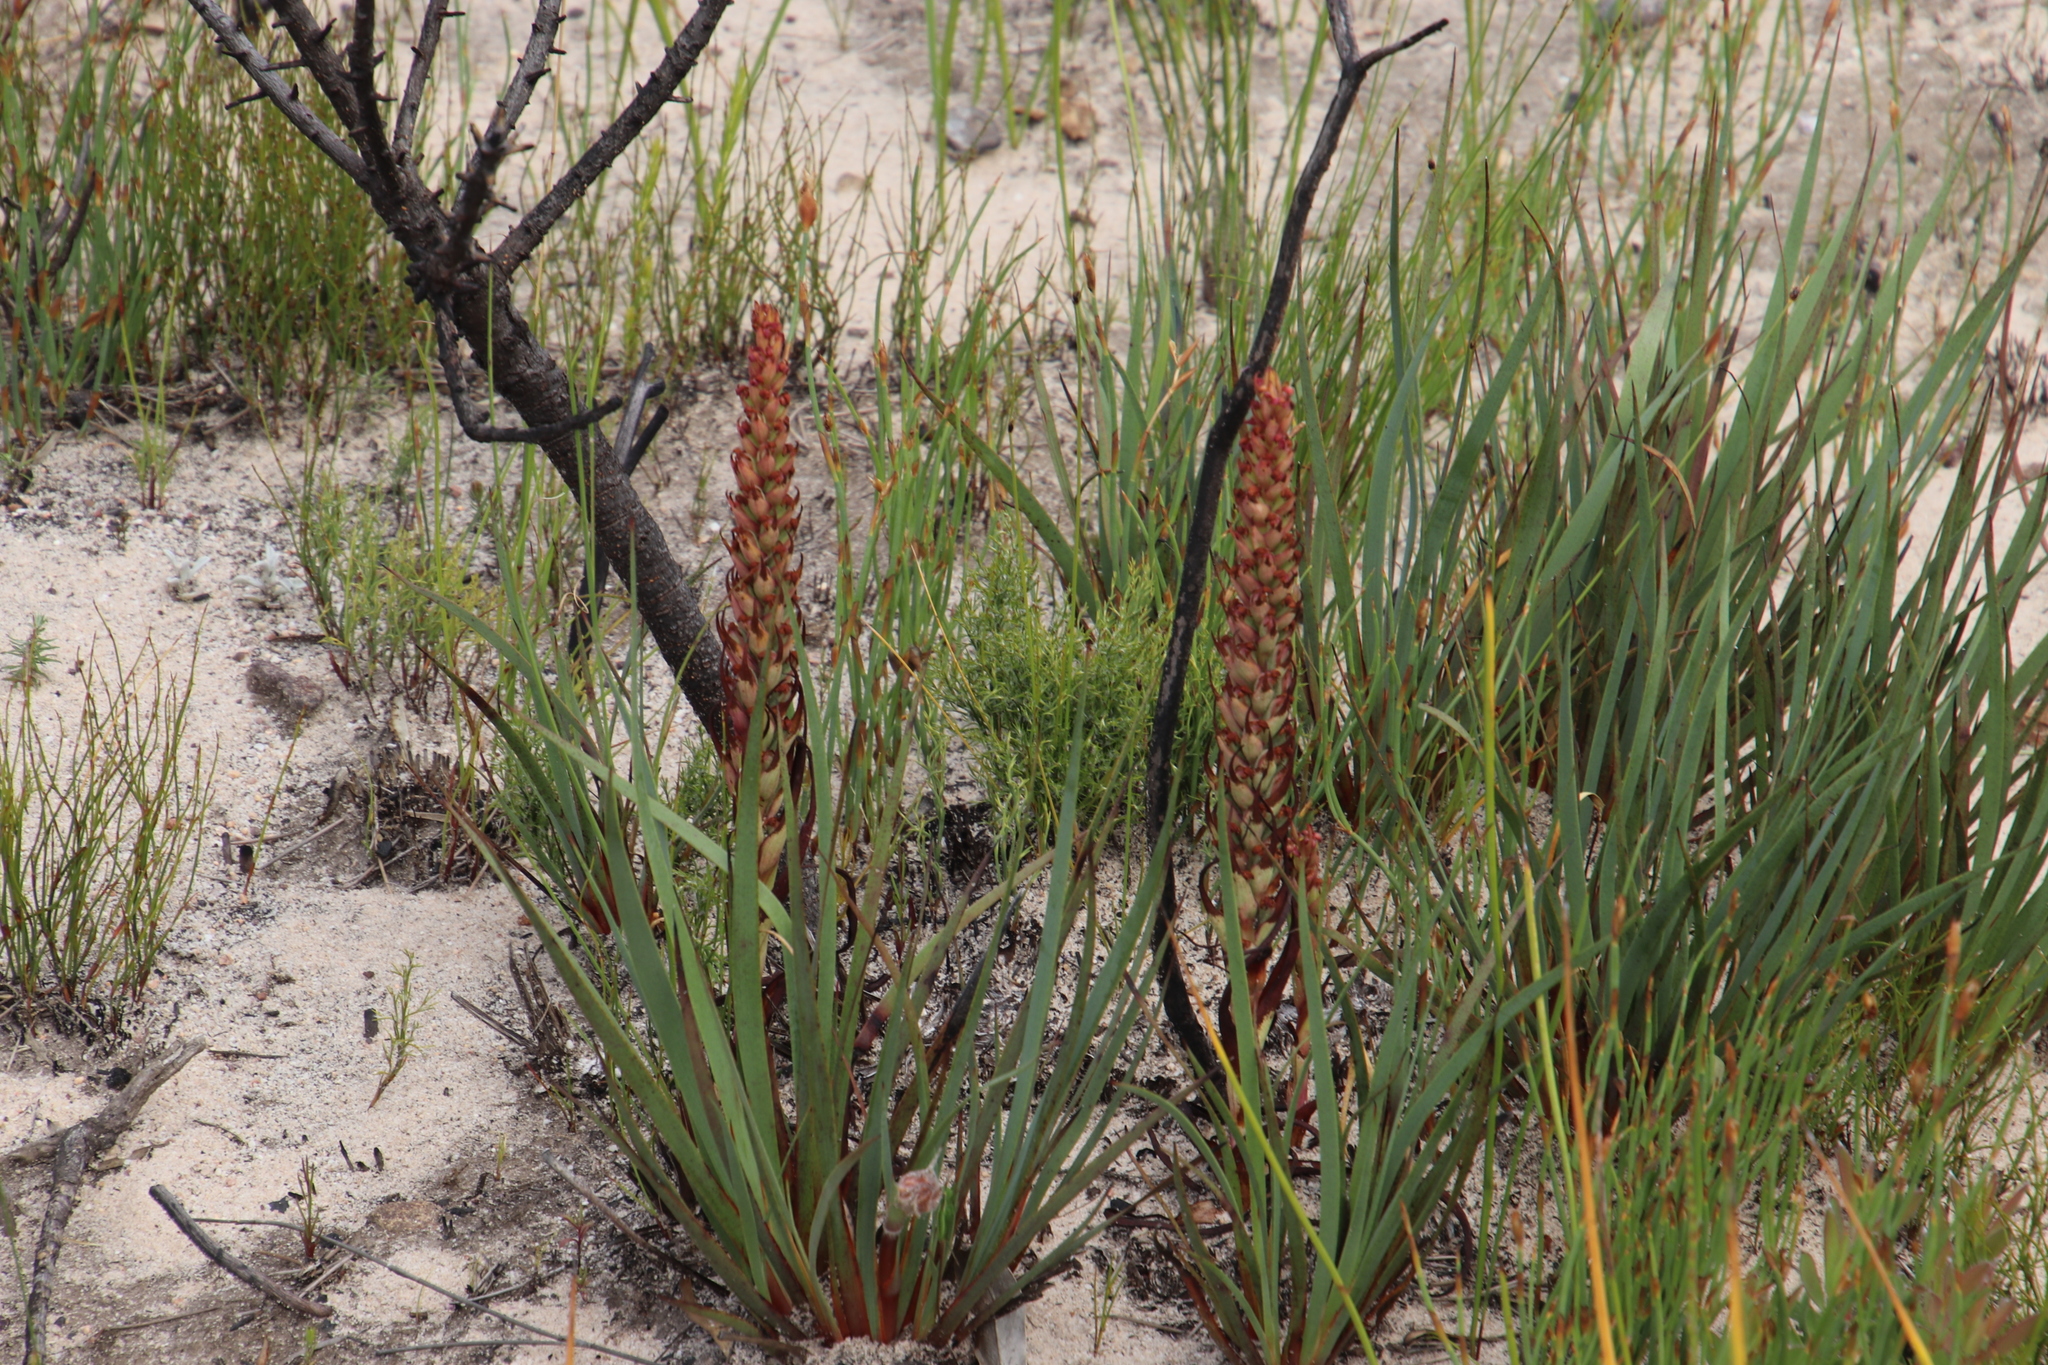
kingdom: Plantae
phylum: Tracheophyta
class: Liliopsida
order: Asparagales
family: Orchidaceae
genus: Disa
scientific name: Disa bracteata
